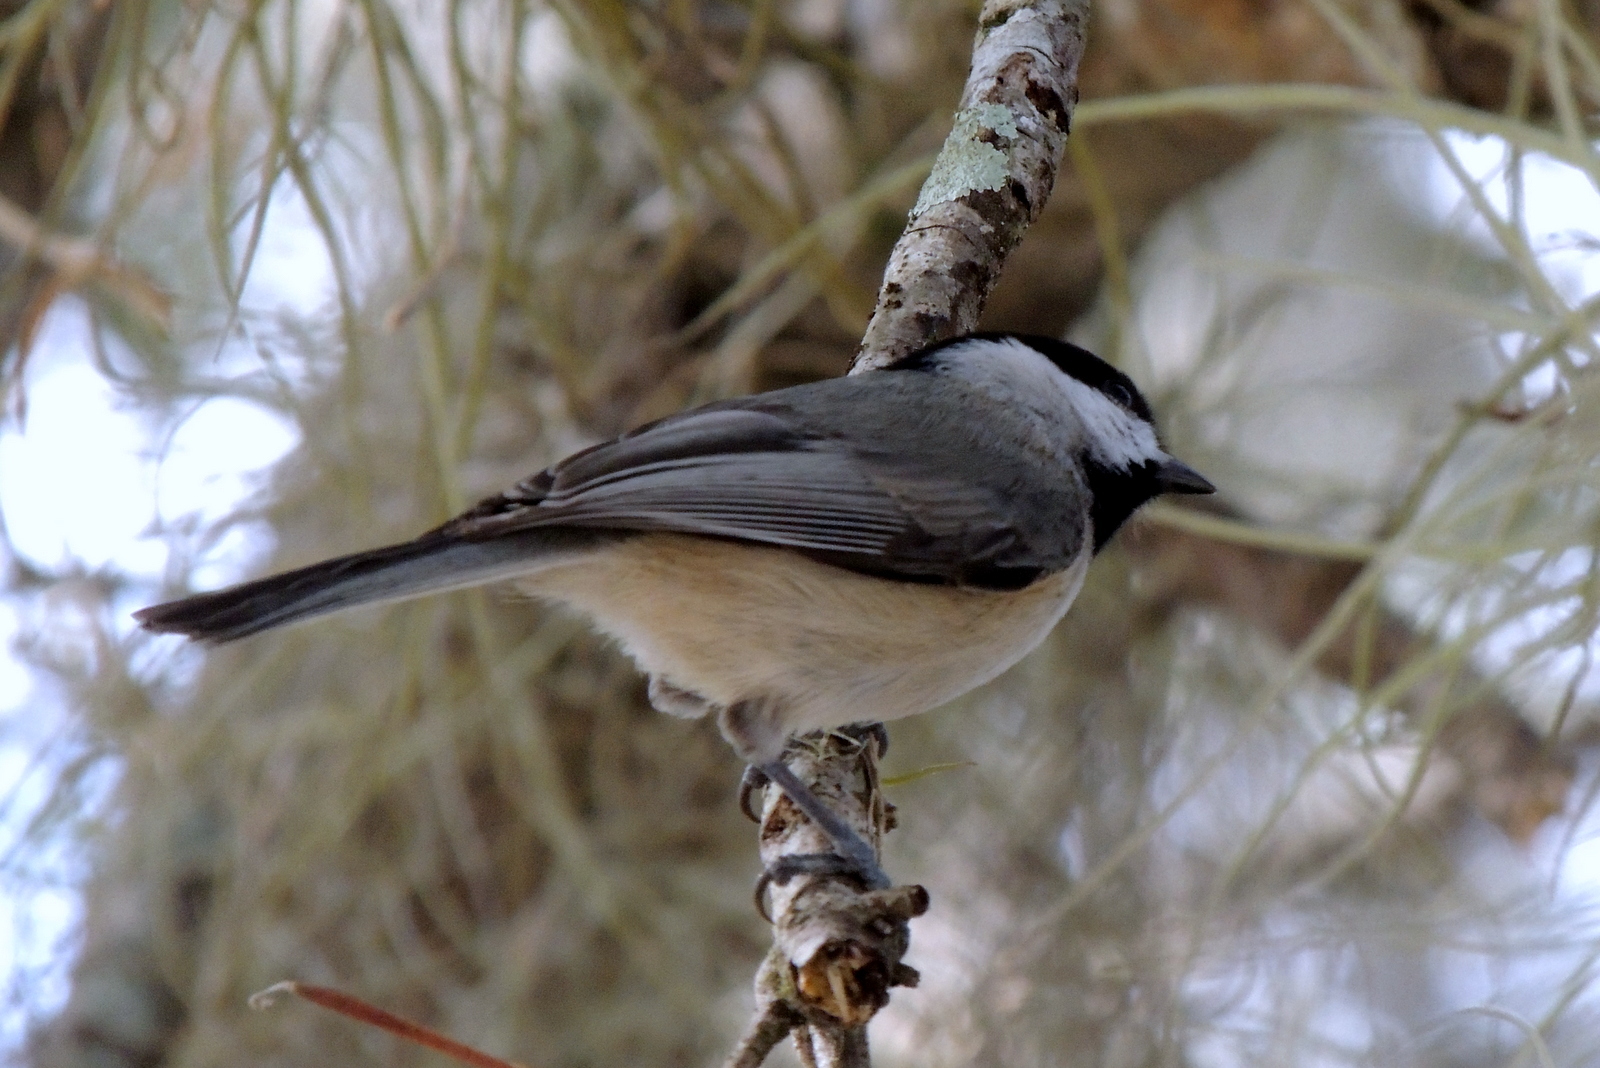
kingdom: Animalia
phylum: Chordata
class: Aves
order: Passeriformes
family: Paridae
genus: Poecile
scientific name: Poecile carolinensis
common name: Carolina chickadee
